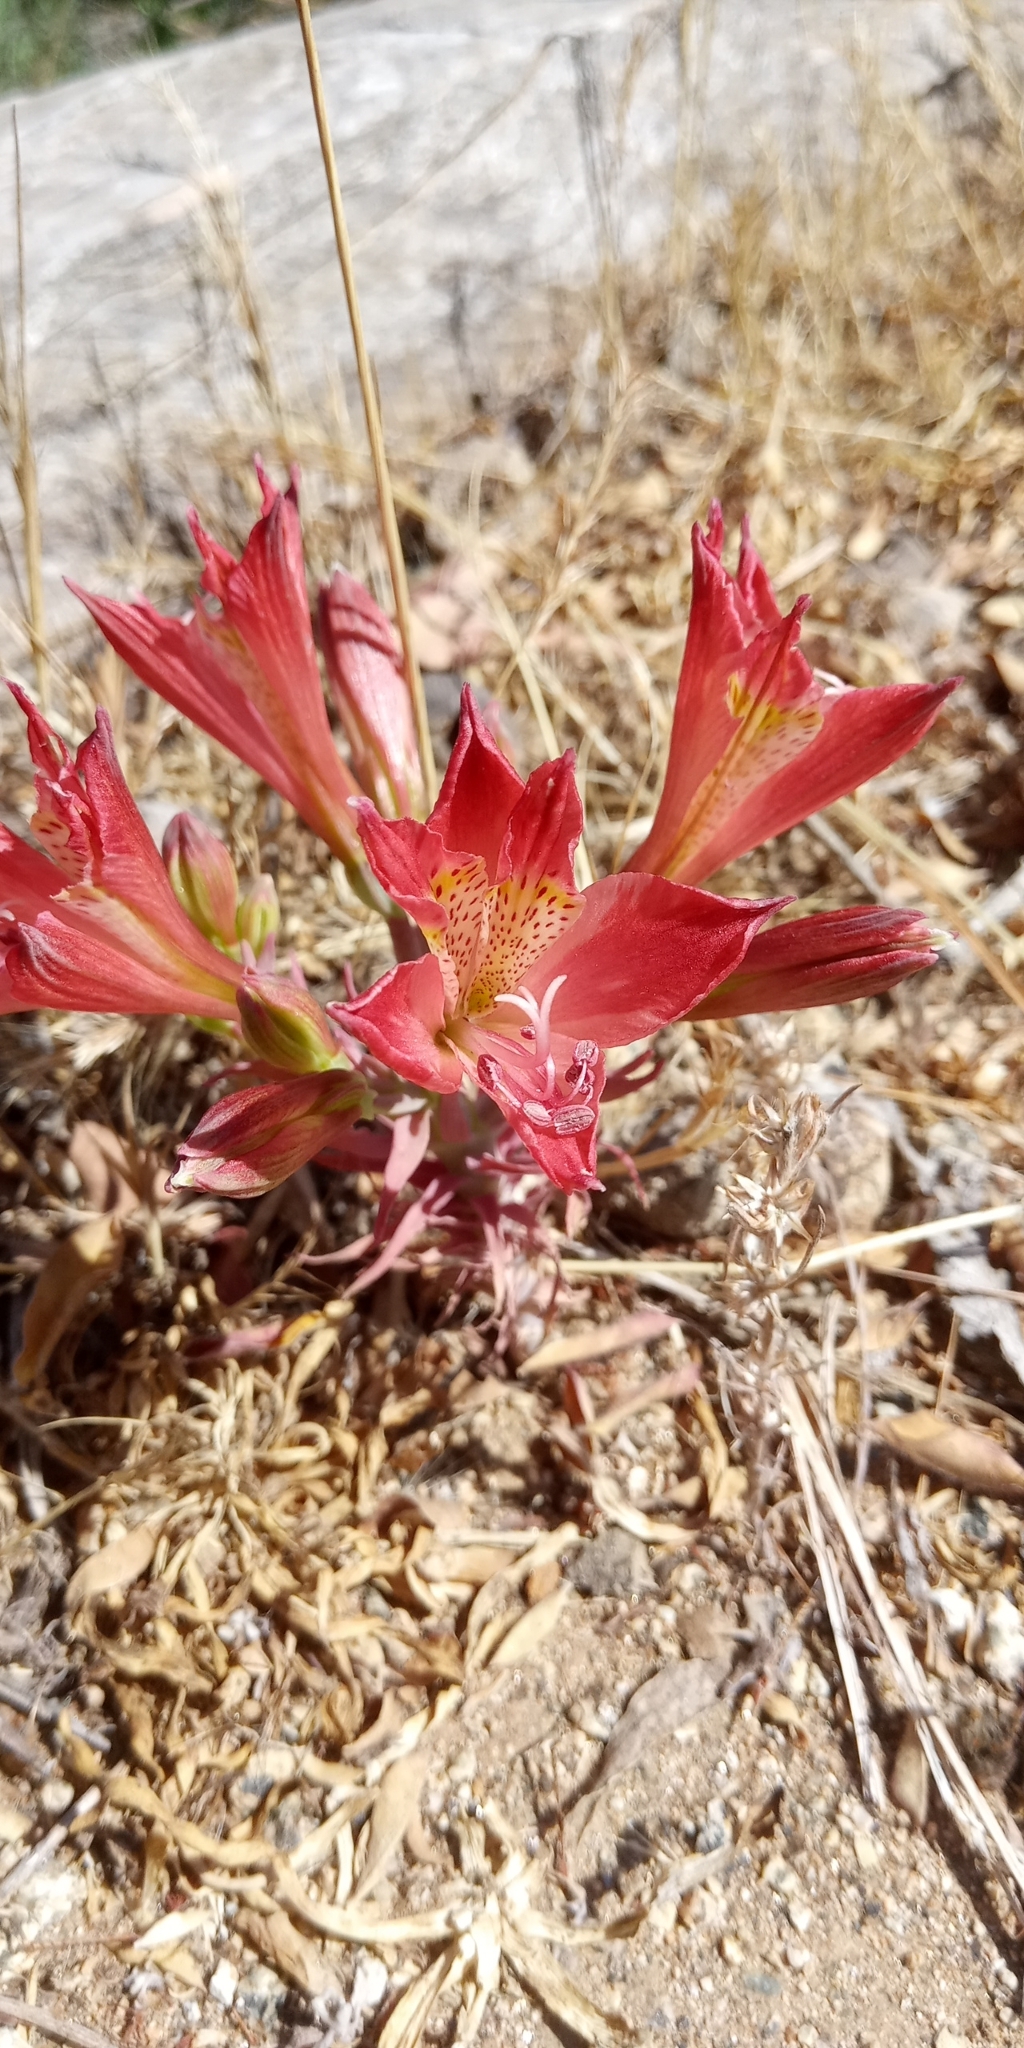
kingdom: Plantae
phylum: Tracheophyta
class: Liliopsida
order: Liliales
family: Alstroemeriaceae
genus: Alstroemeria
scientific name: Alstroemeria marticorenae
